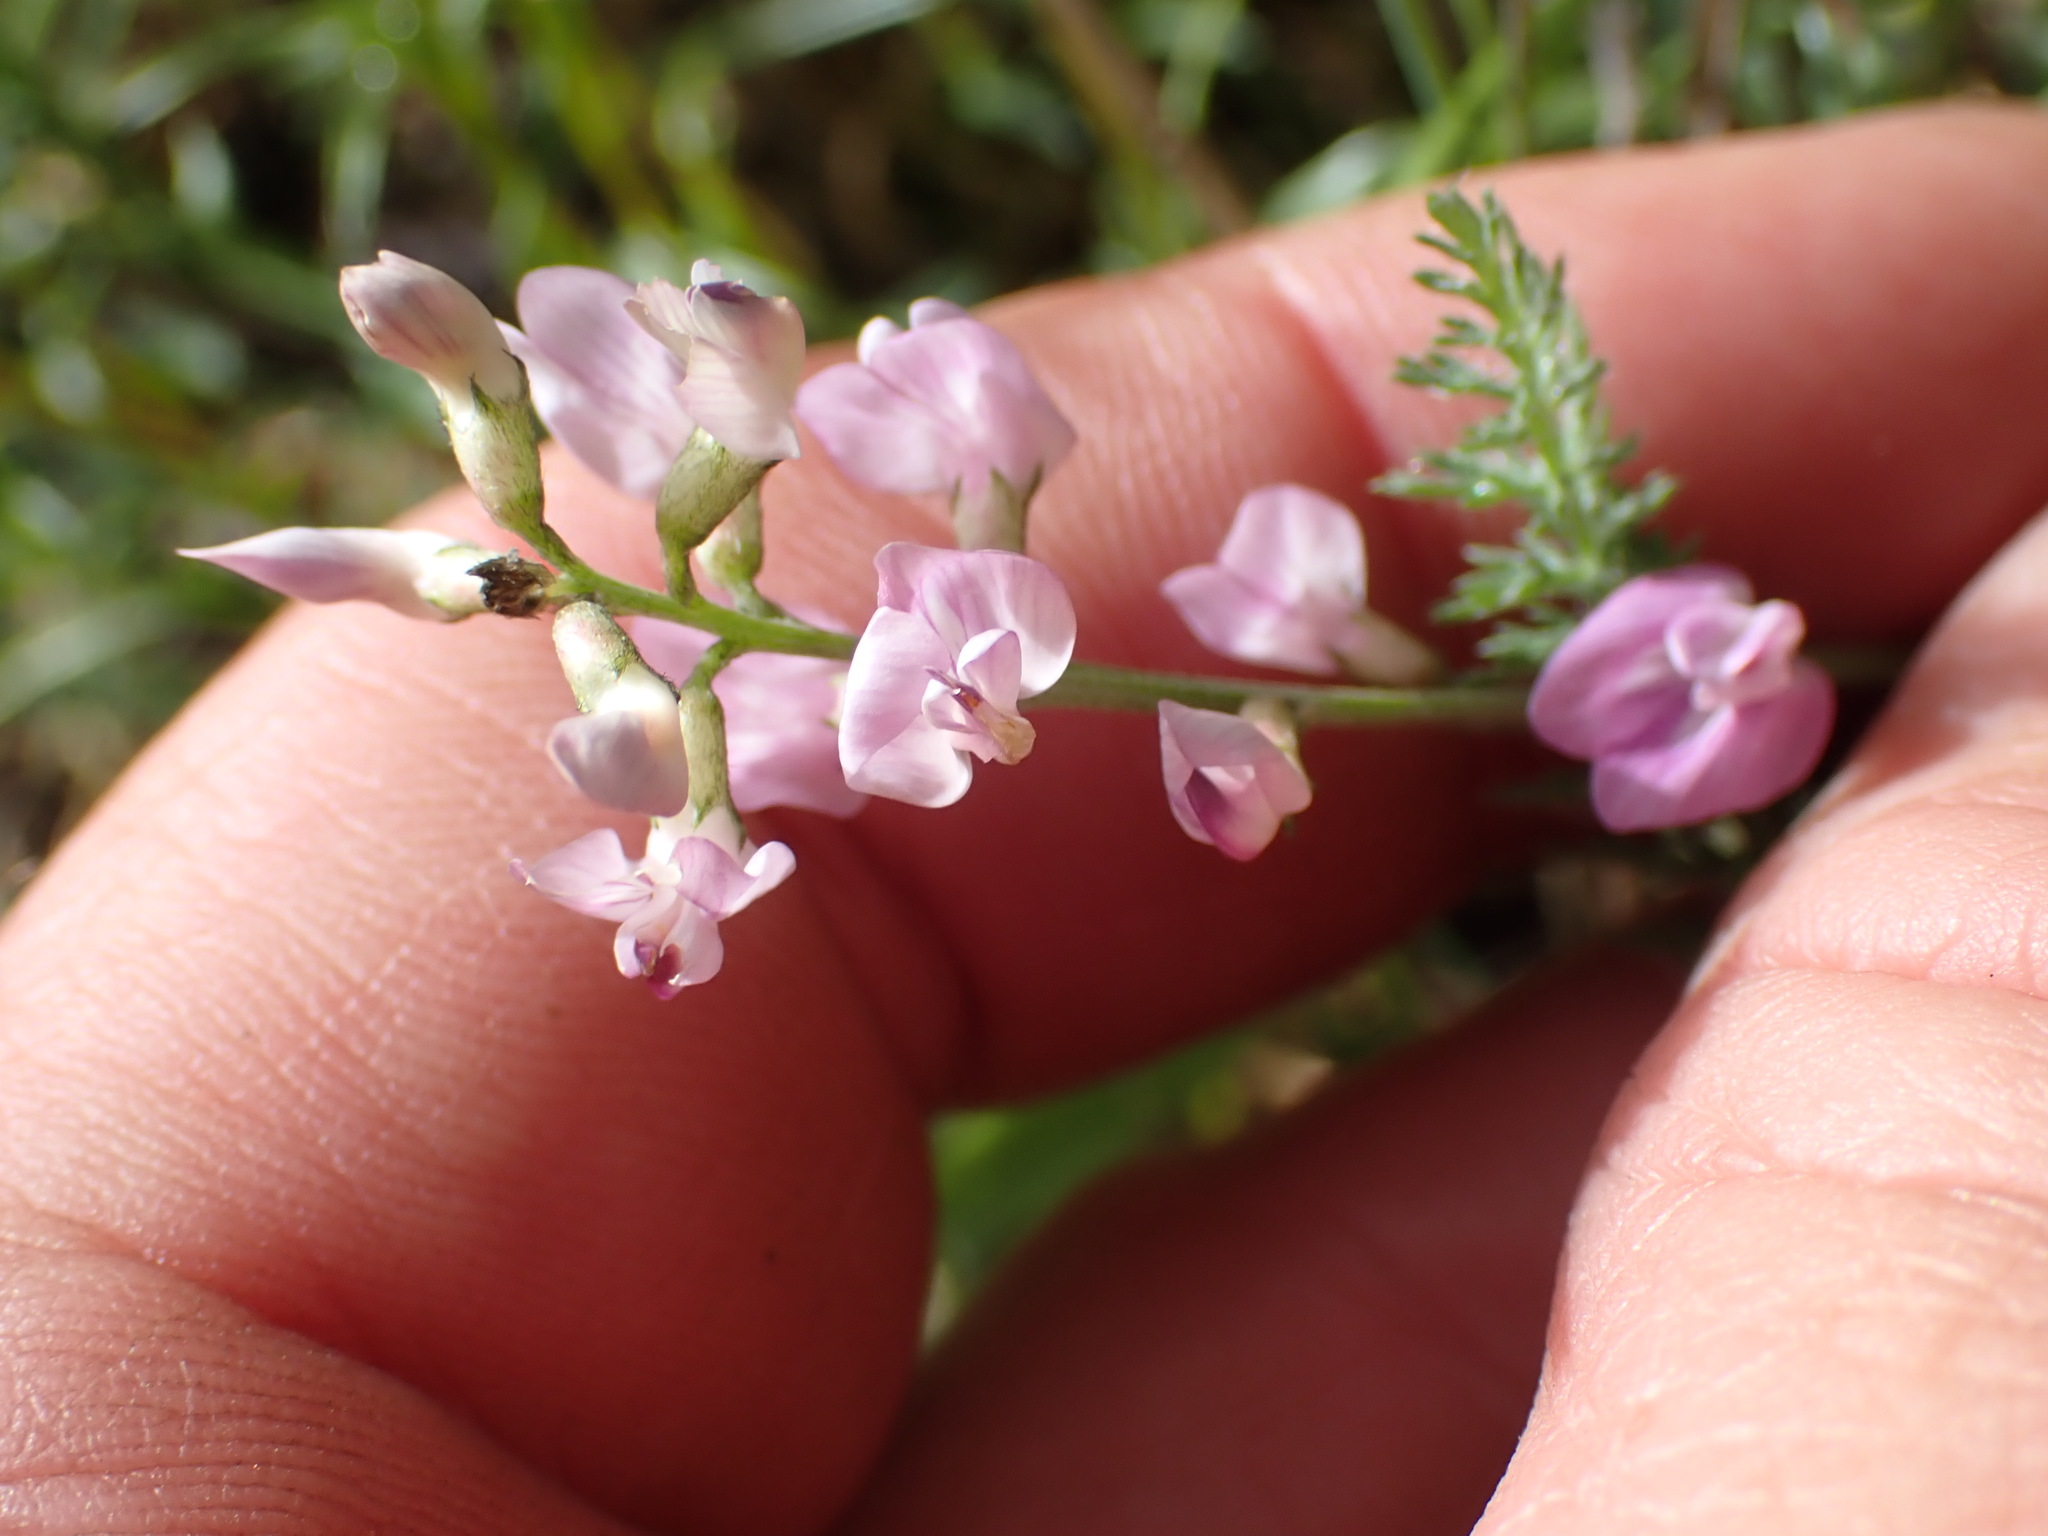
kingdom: Plantae
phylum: Tracheophyta
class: Magnoliopsida
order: Fabales
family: Fabaceae
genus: Astragalus
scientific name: Astragalus miser
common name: Timber milkvetch
